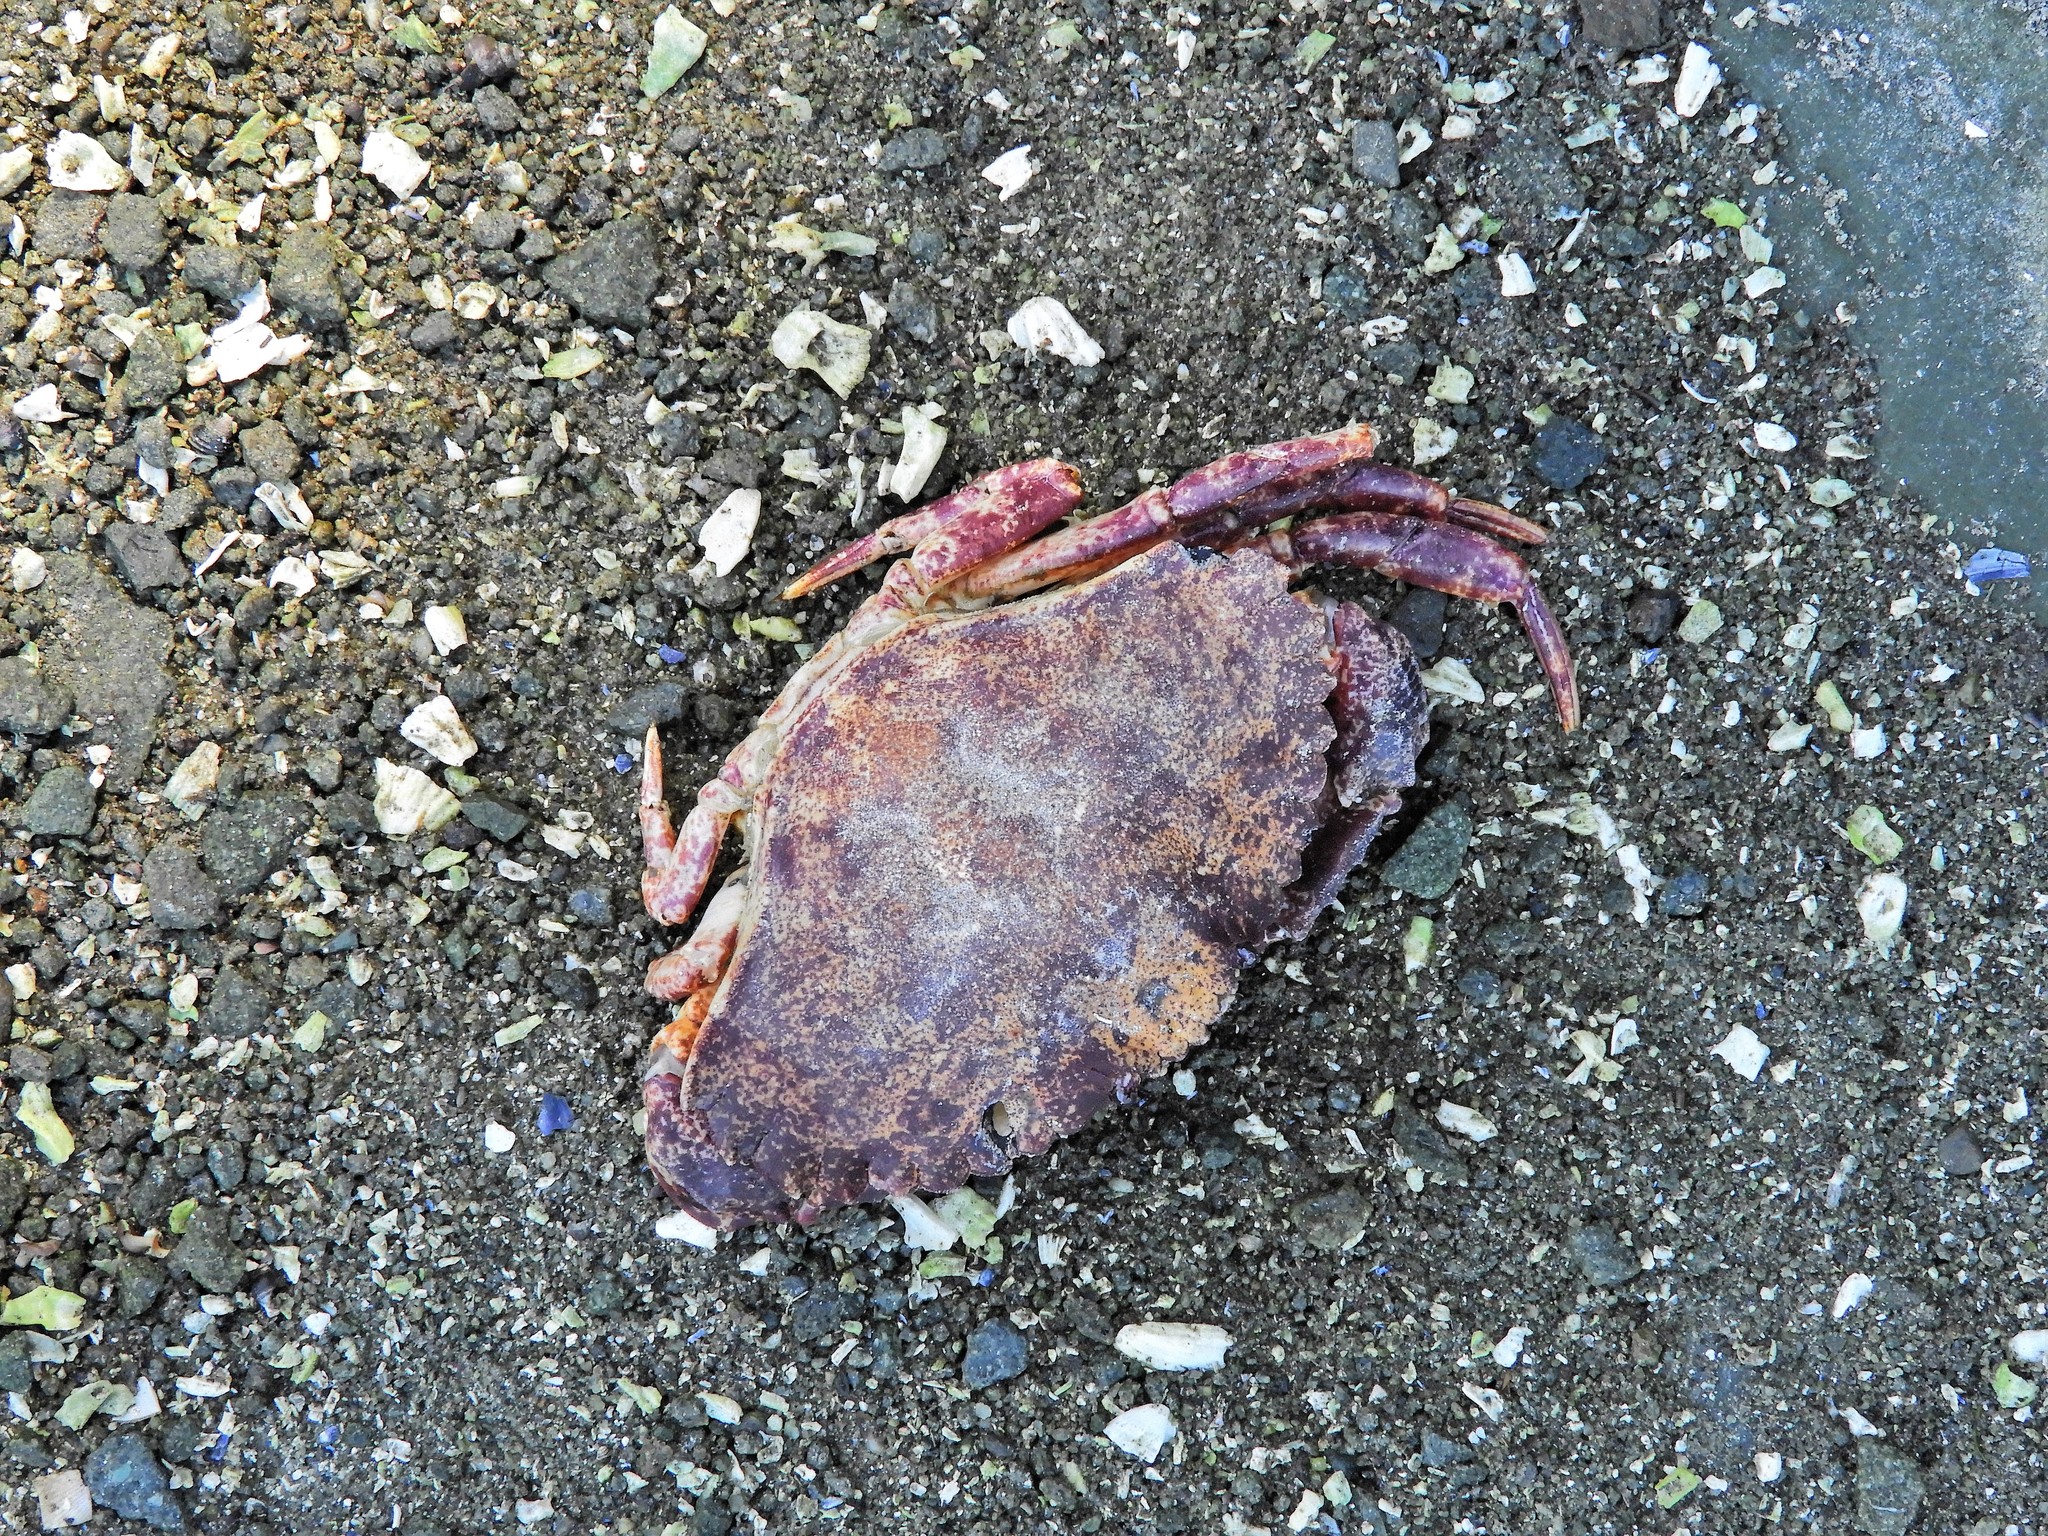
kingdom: Animalia
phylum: Arthropoda
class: Malacostraca
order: Decapoda
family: Cancridae
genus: Cancer
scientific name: Cancer productus
